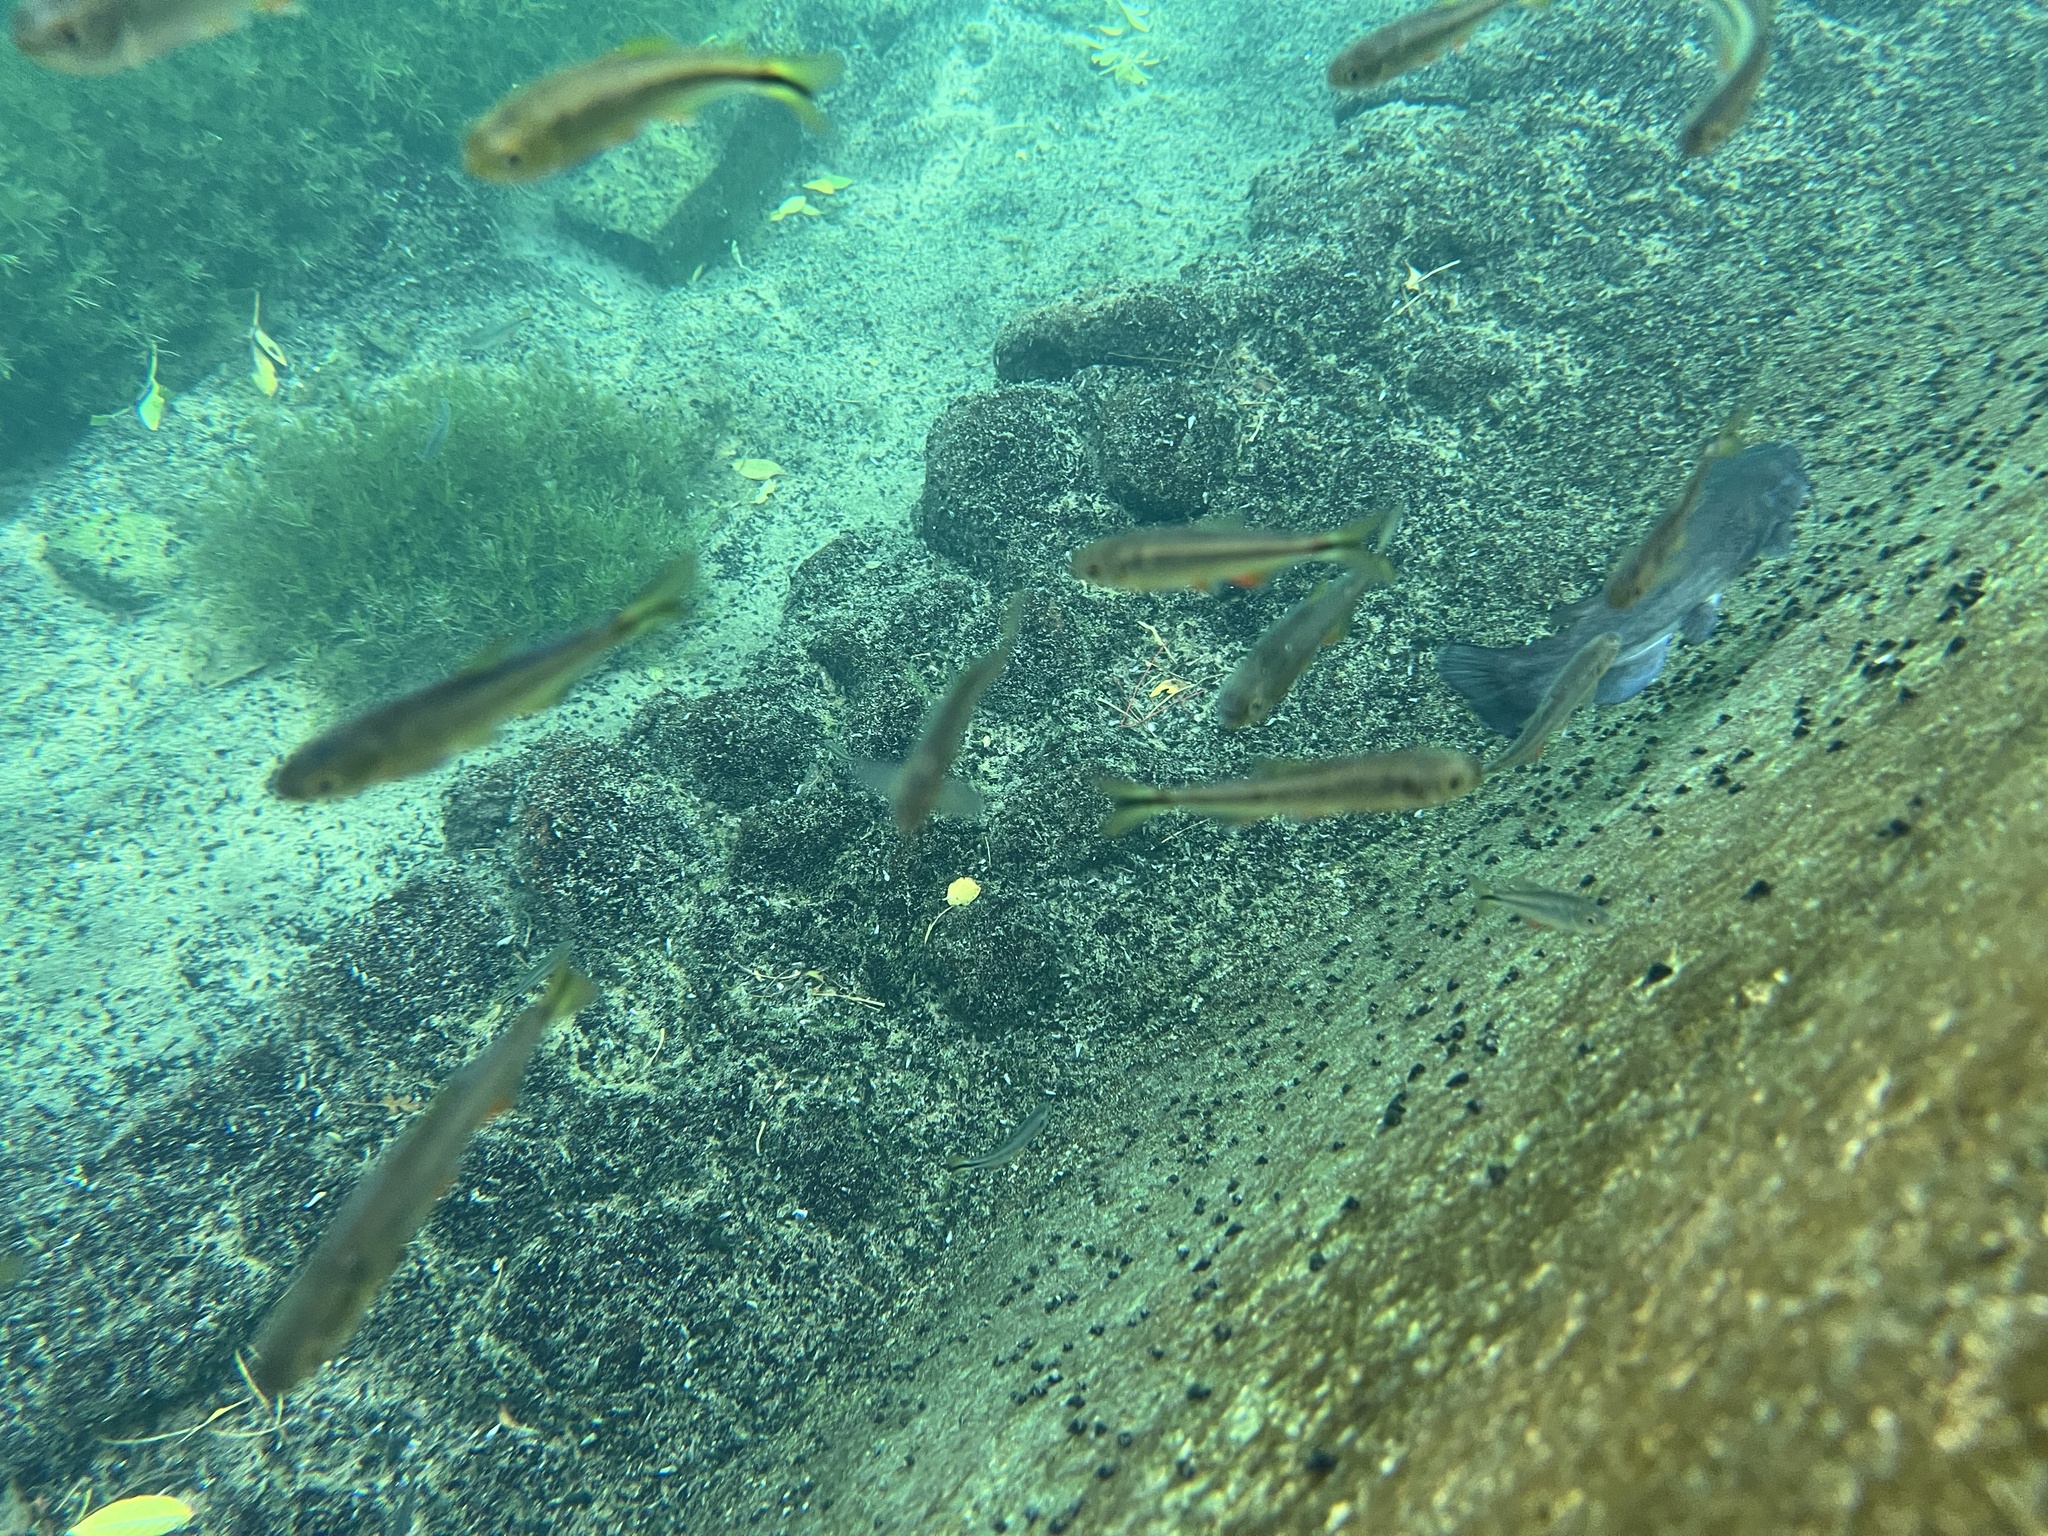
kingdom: Animalia
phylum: Chordata
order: Siluriformes
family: Ictaluridae
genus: Ictalurus
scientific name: Ictalurus lupus
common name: Headwater catfish
